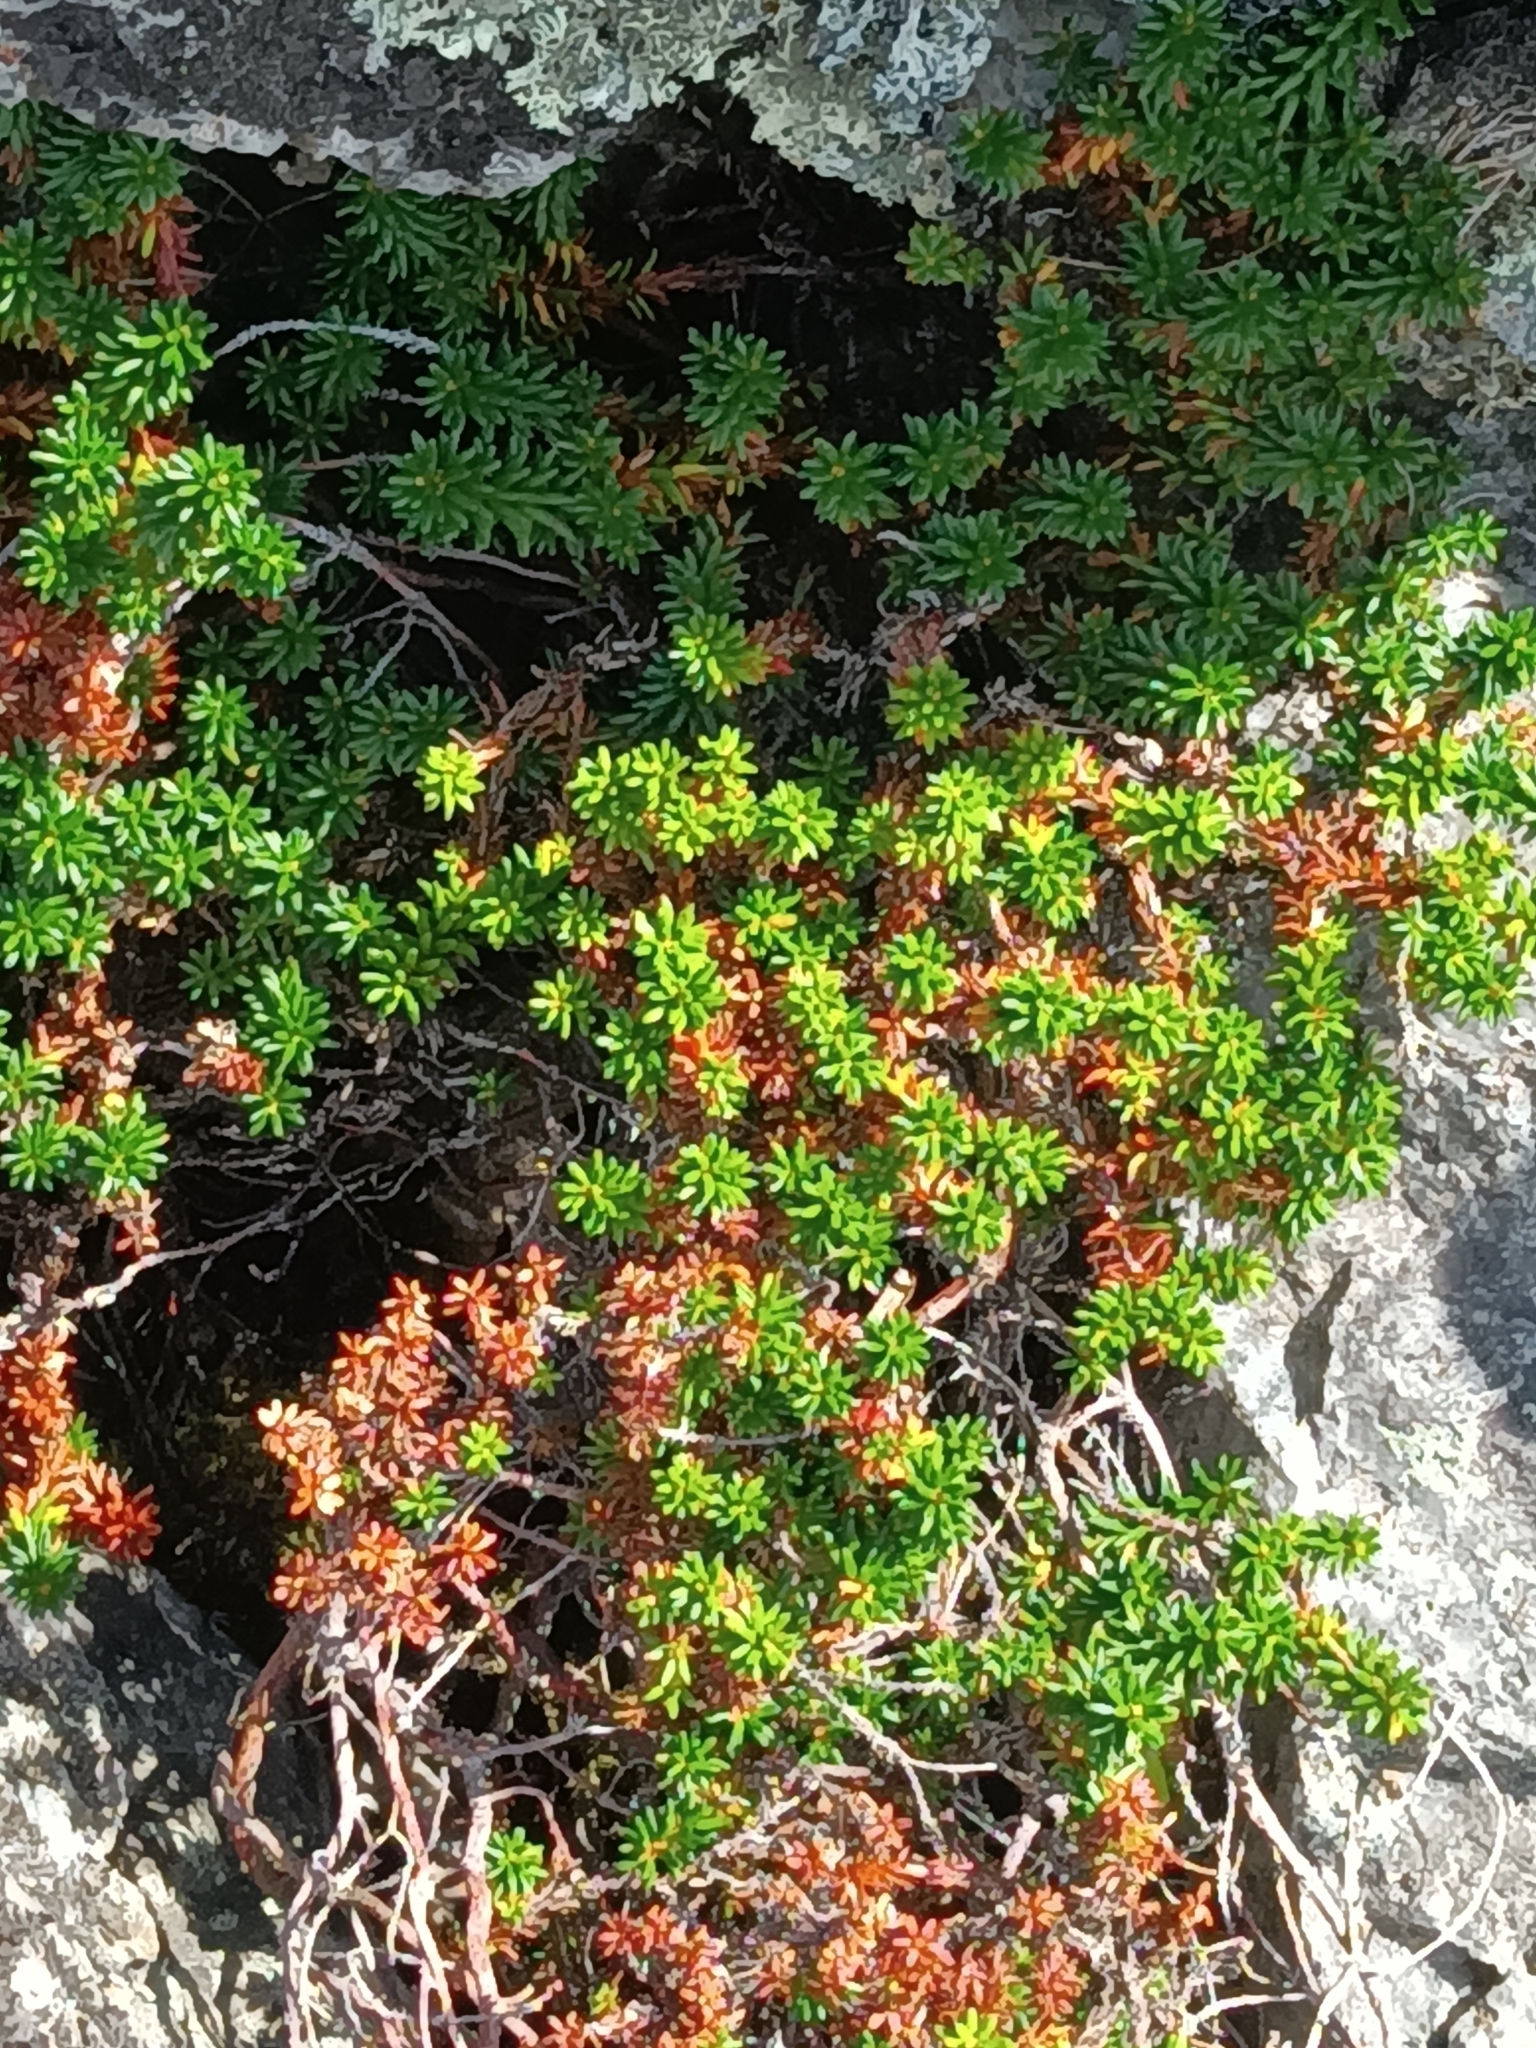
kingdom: Plantae
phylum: Tracheophyta
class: Magnoliopsida
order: Ericales
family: Ericaceae
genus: Empetrum
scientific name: Empetrum nigrum
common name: Black crowberry
